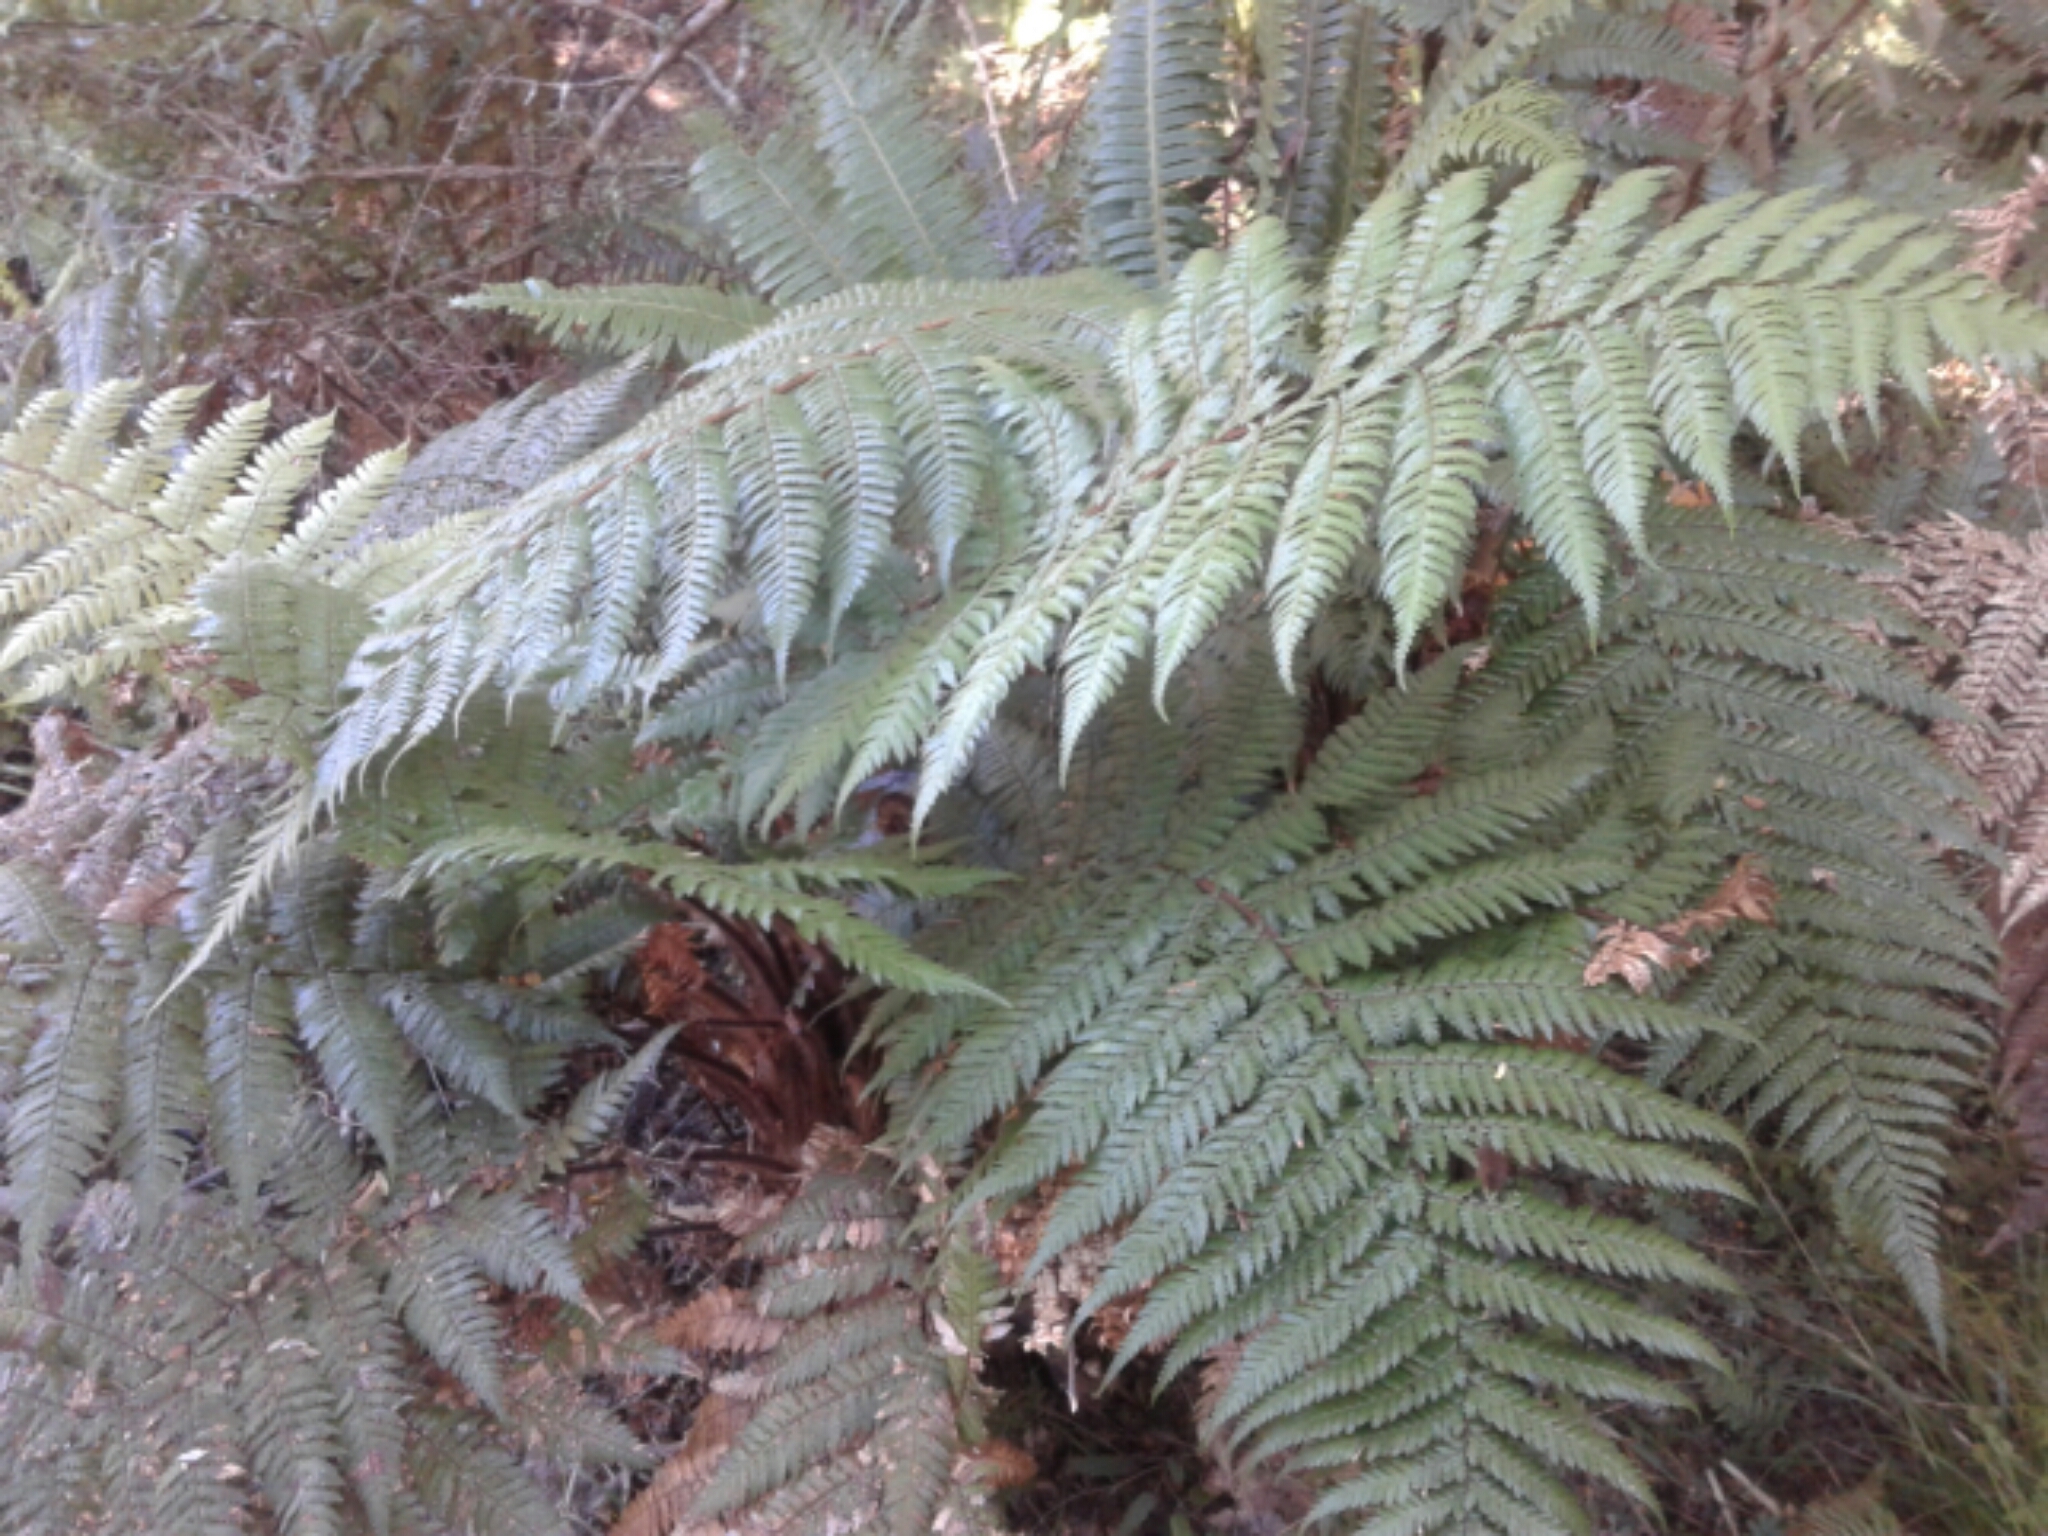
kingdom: Plantae
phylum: Tracheophyta
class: Polypodiopsida
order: Cyatheales
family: Dicksoniaceae
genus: Dicksonia
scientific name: Dicksonia squarrosa
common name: Hard treefern
